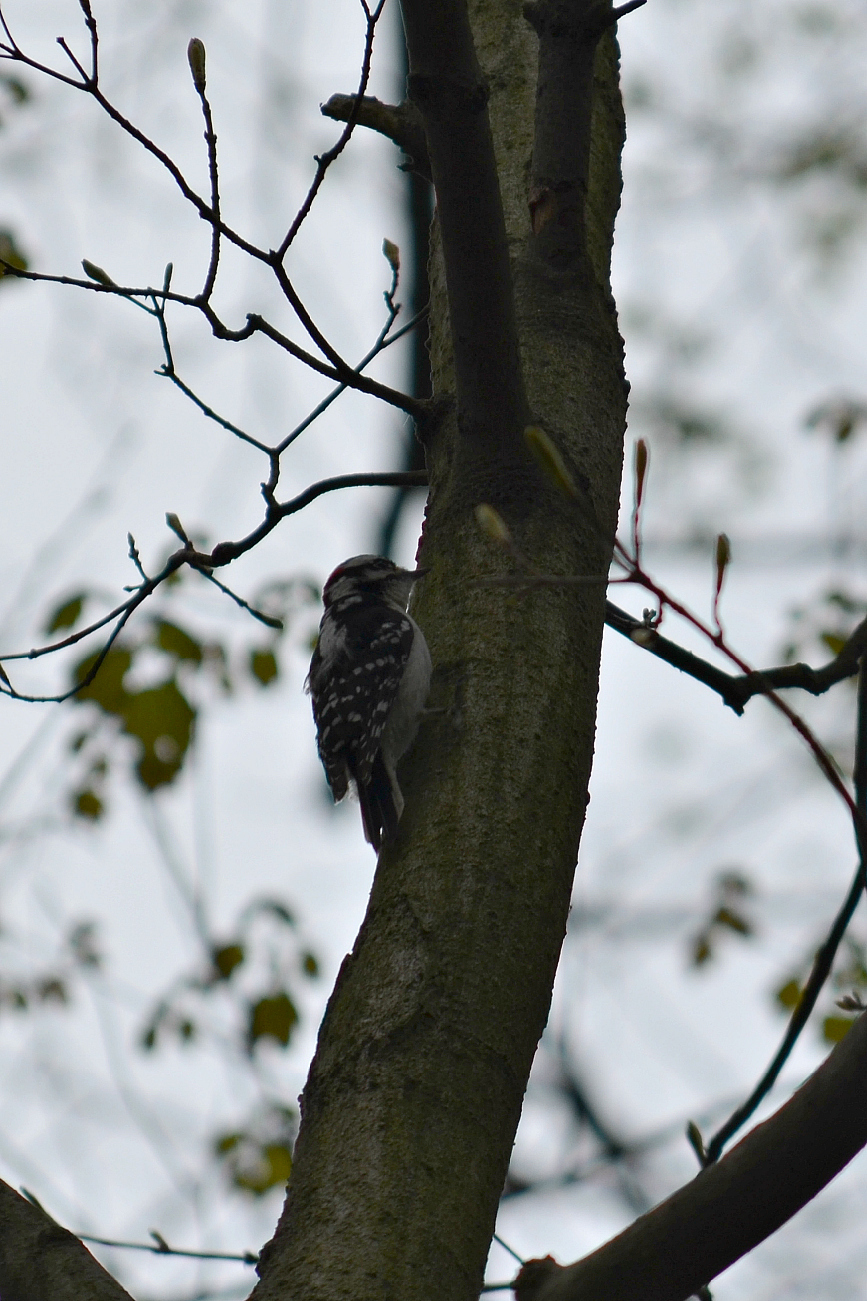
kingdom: Animalia
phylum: Chordata
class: Aves
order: Piciformes
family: Picidae
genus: Dryobates
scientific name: Dryobates pubescens
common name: Downy woodpecker
